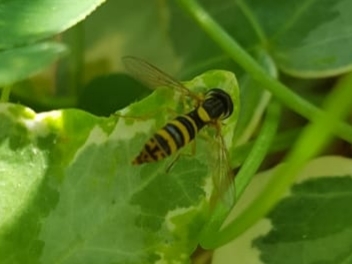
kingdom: Animalia
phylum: Arthropoda
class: Insecta
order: Diptera
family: Syrphidae
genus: Sphaerophoria
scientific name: Sphaerophoria
